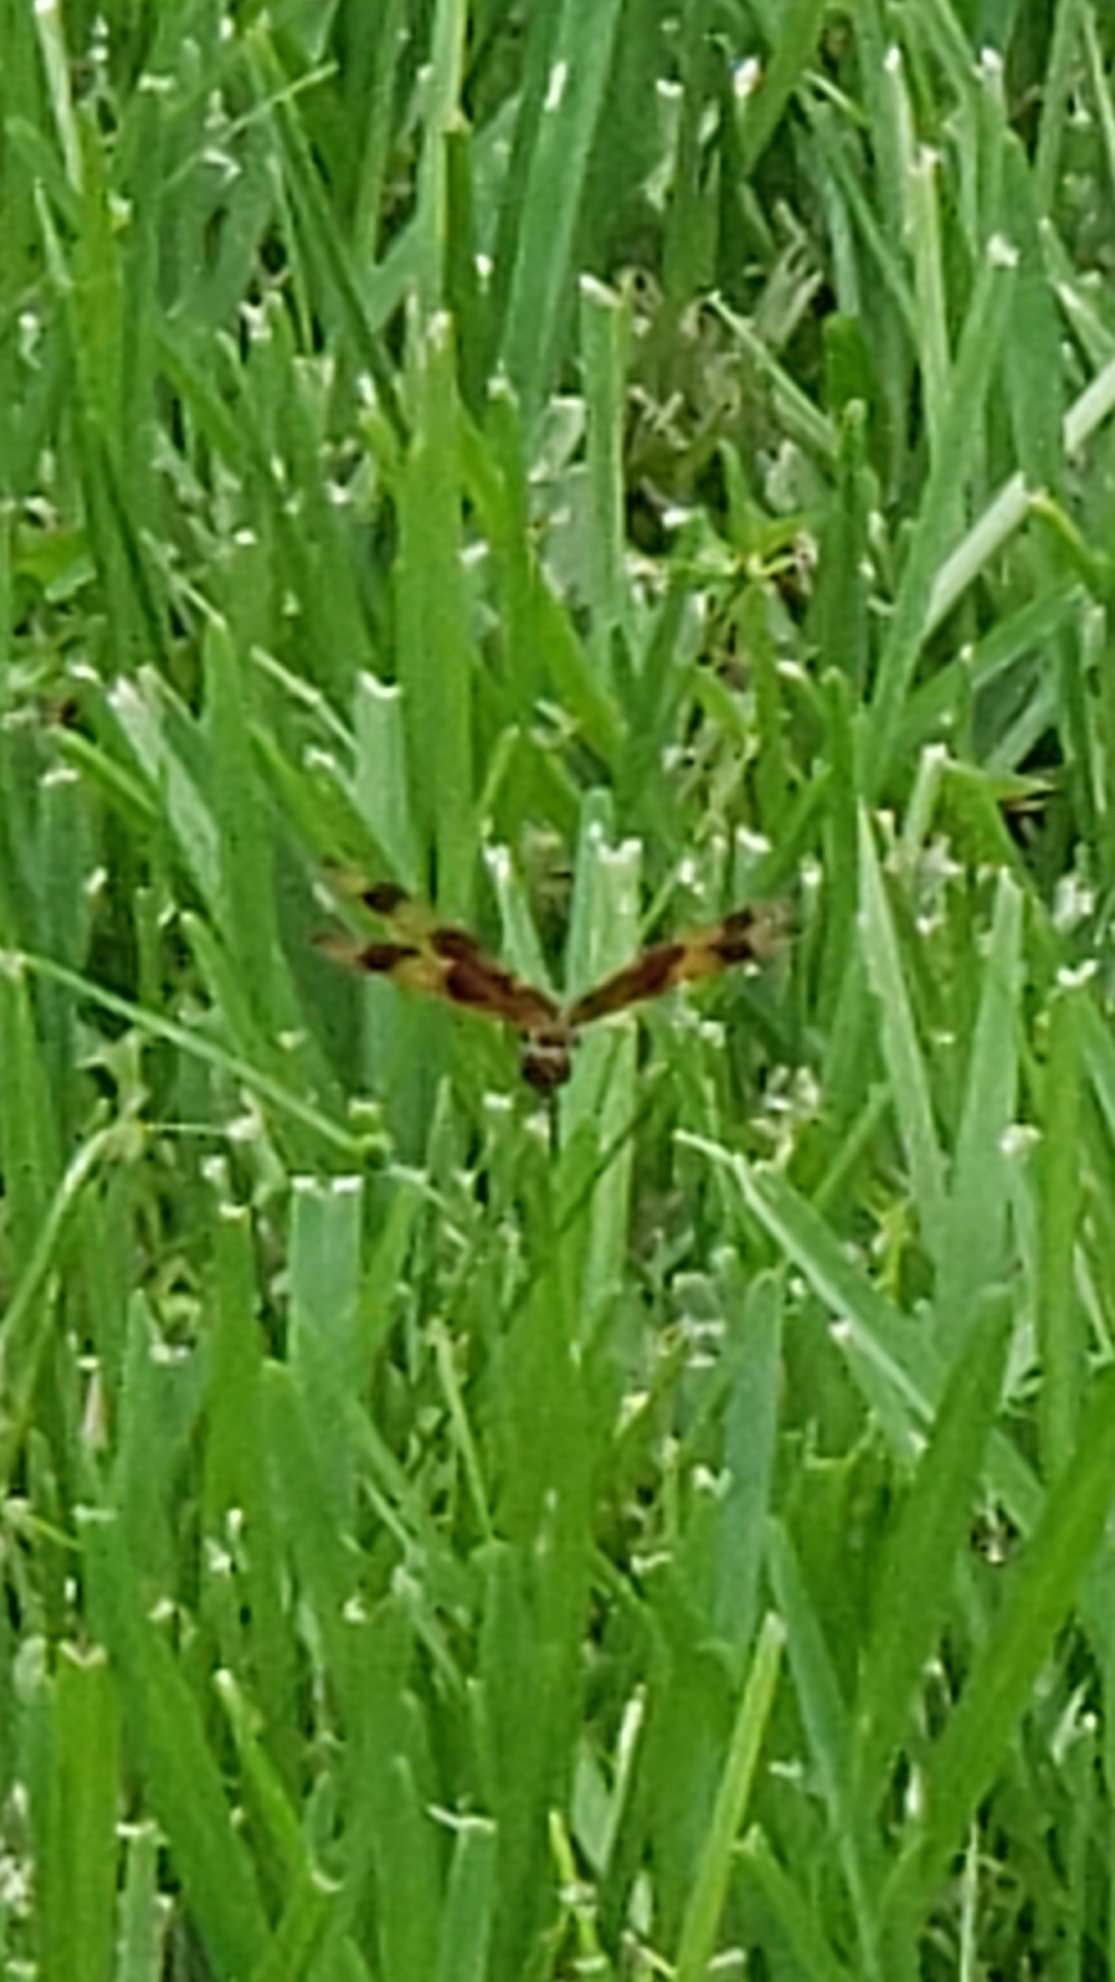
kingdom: Animalia
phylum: Arthropoda
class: Insecta
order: Odonata
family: Libellulidae
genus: Celithemis
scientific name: Celithemis eponina
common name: Halloween pennant
